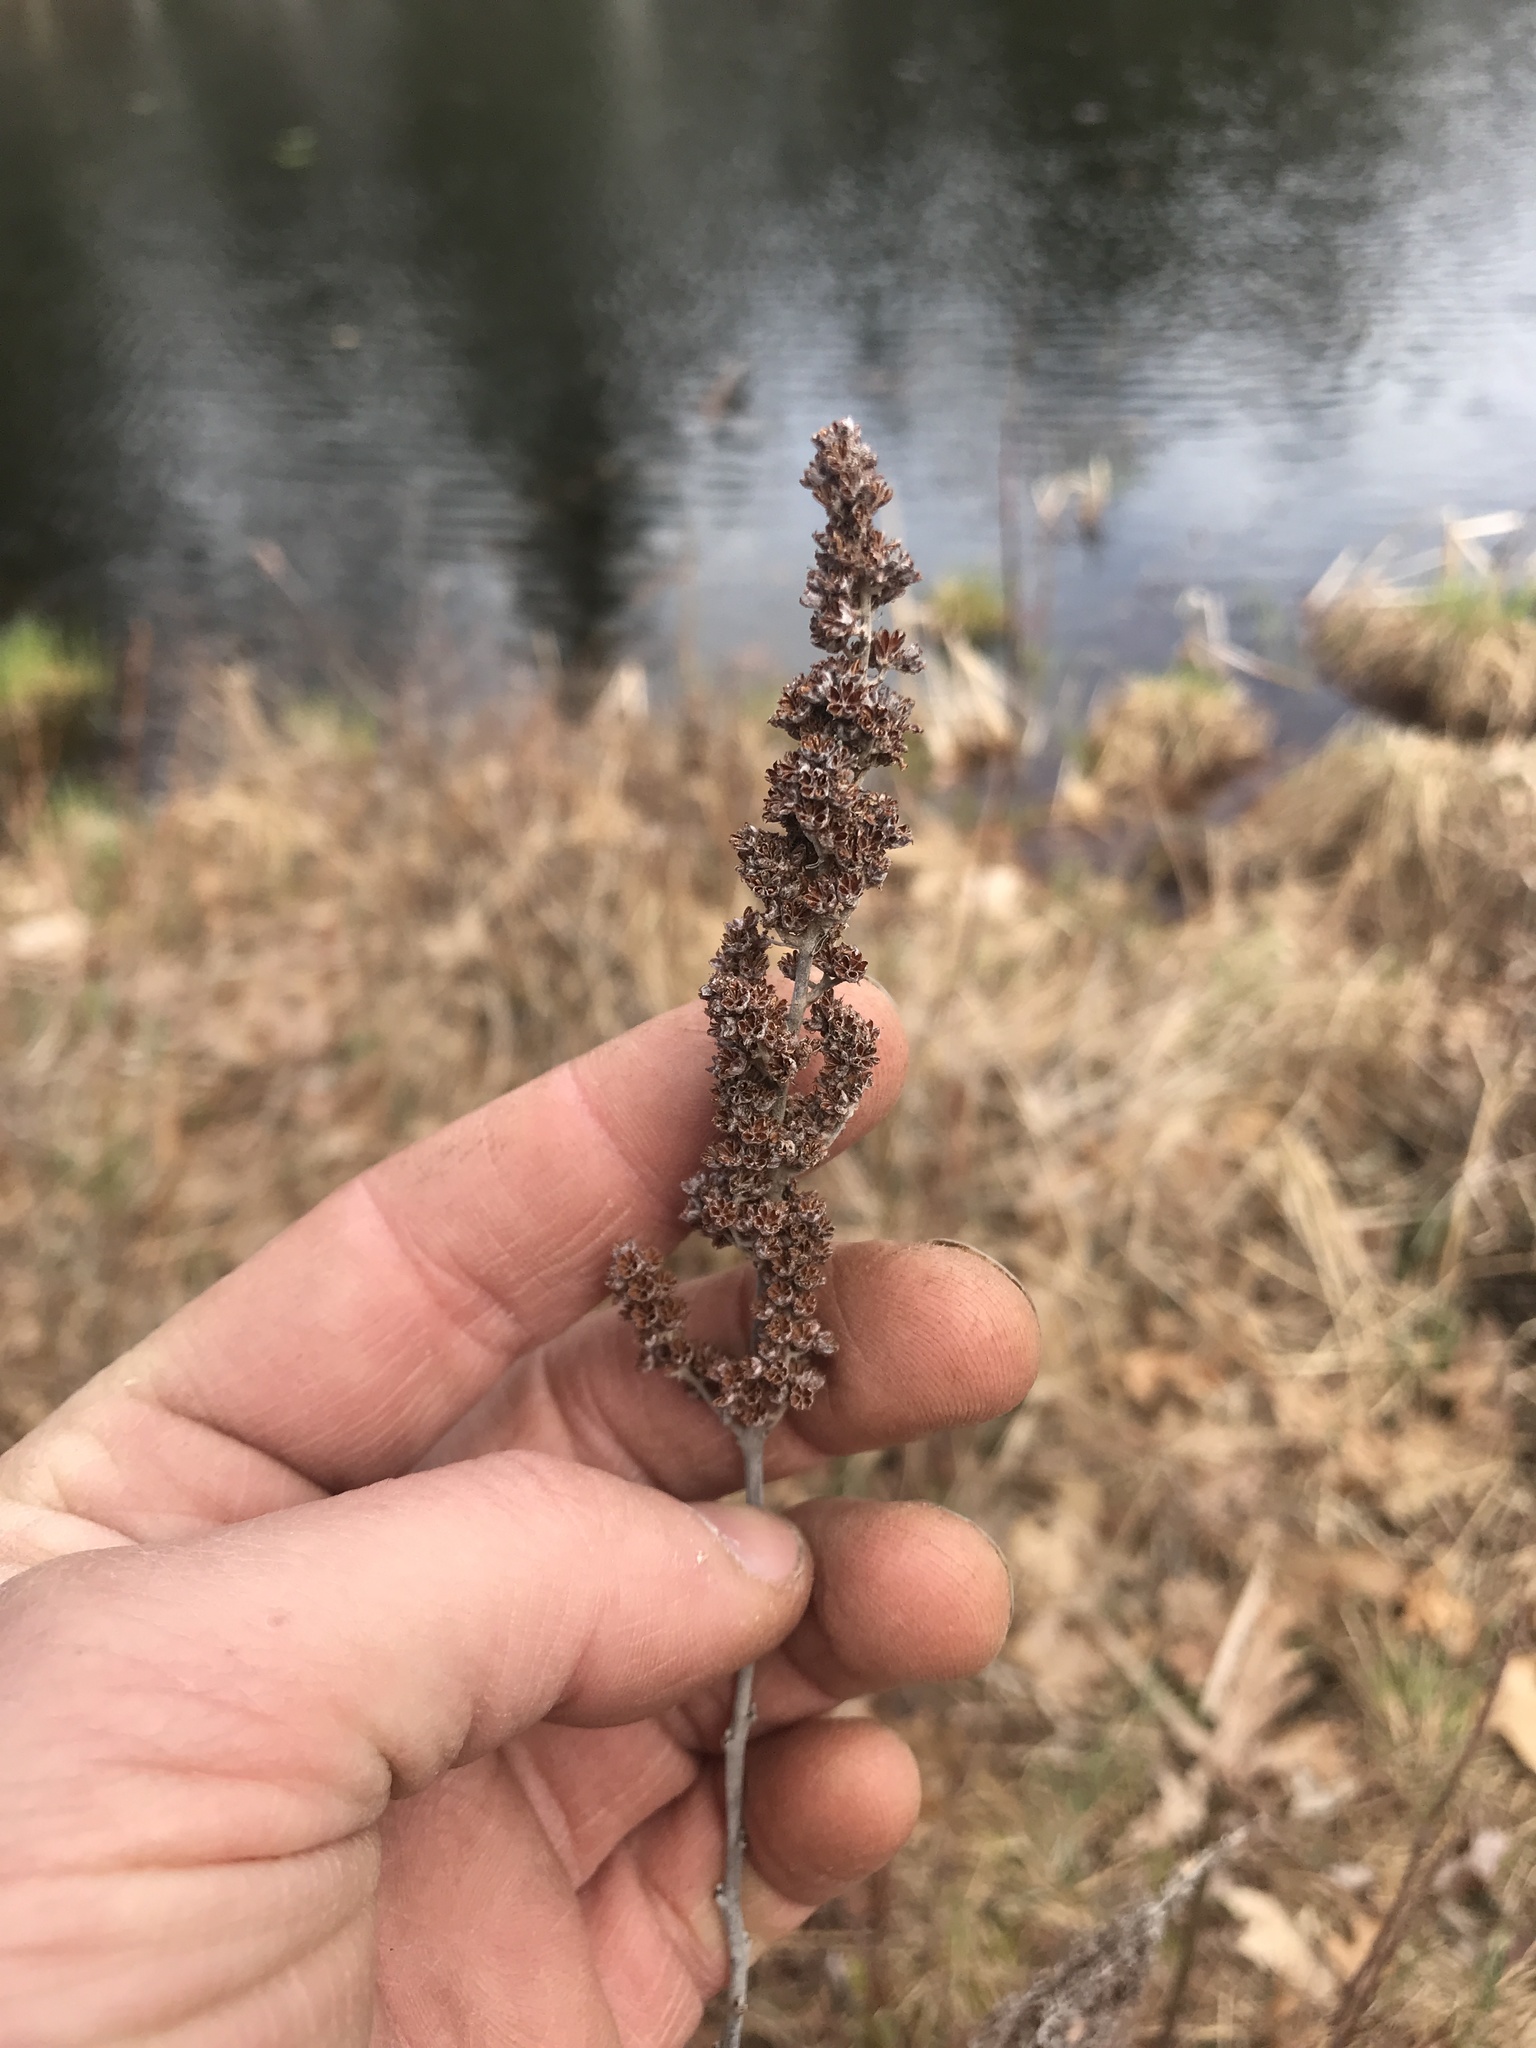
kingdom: Plantae
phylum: Tracheophyta
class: Magnoliopsida
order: Rosales
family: Rosaceae
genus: Spiraea
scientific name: Spiraea tomentosa
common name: Hardhack
